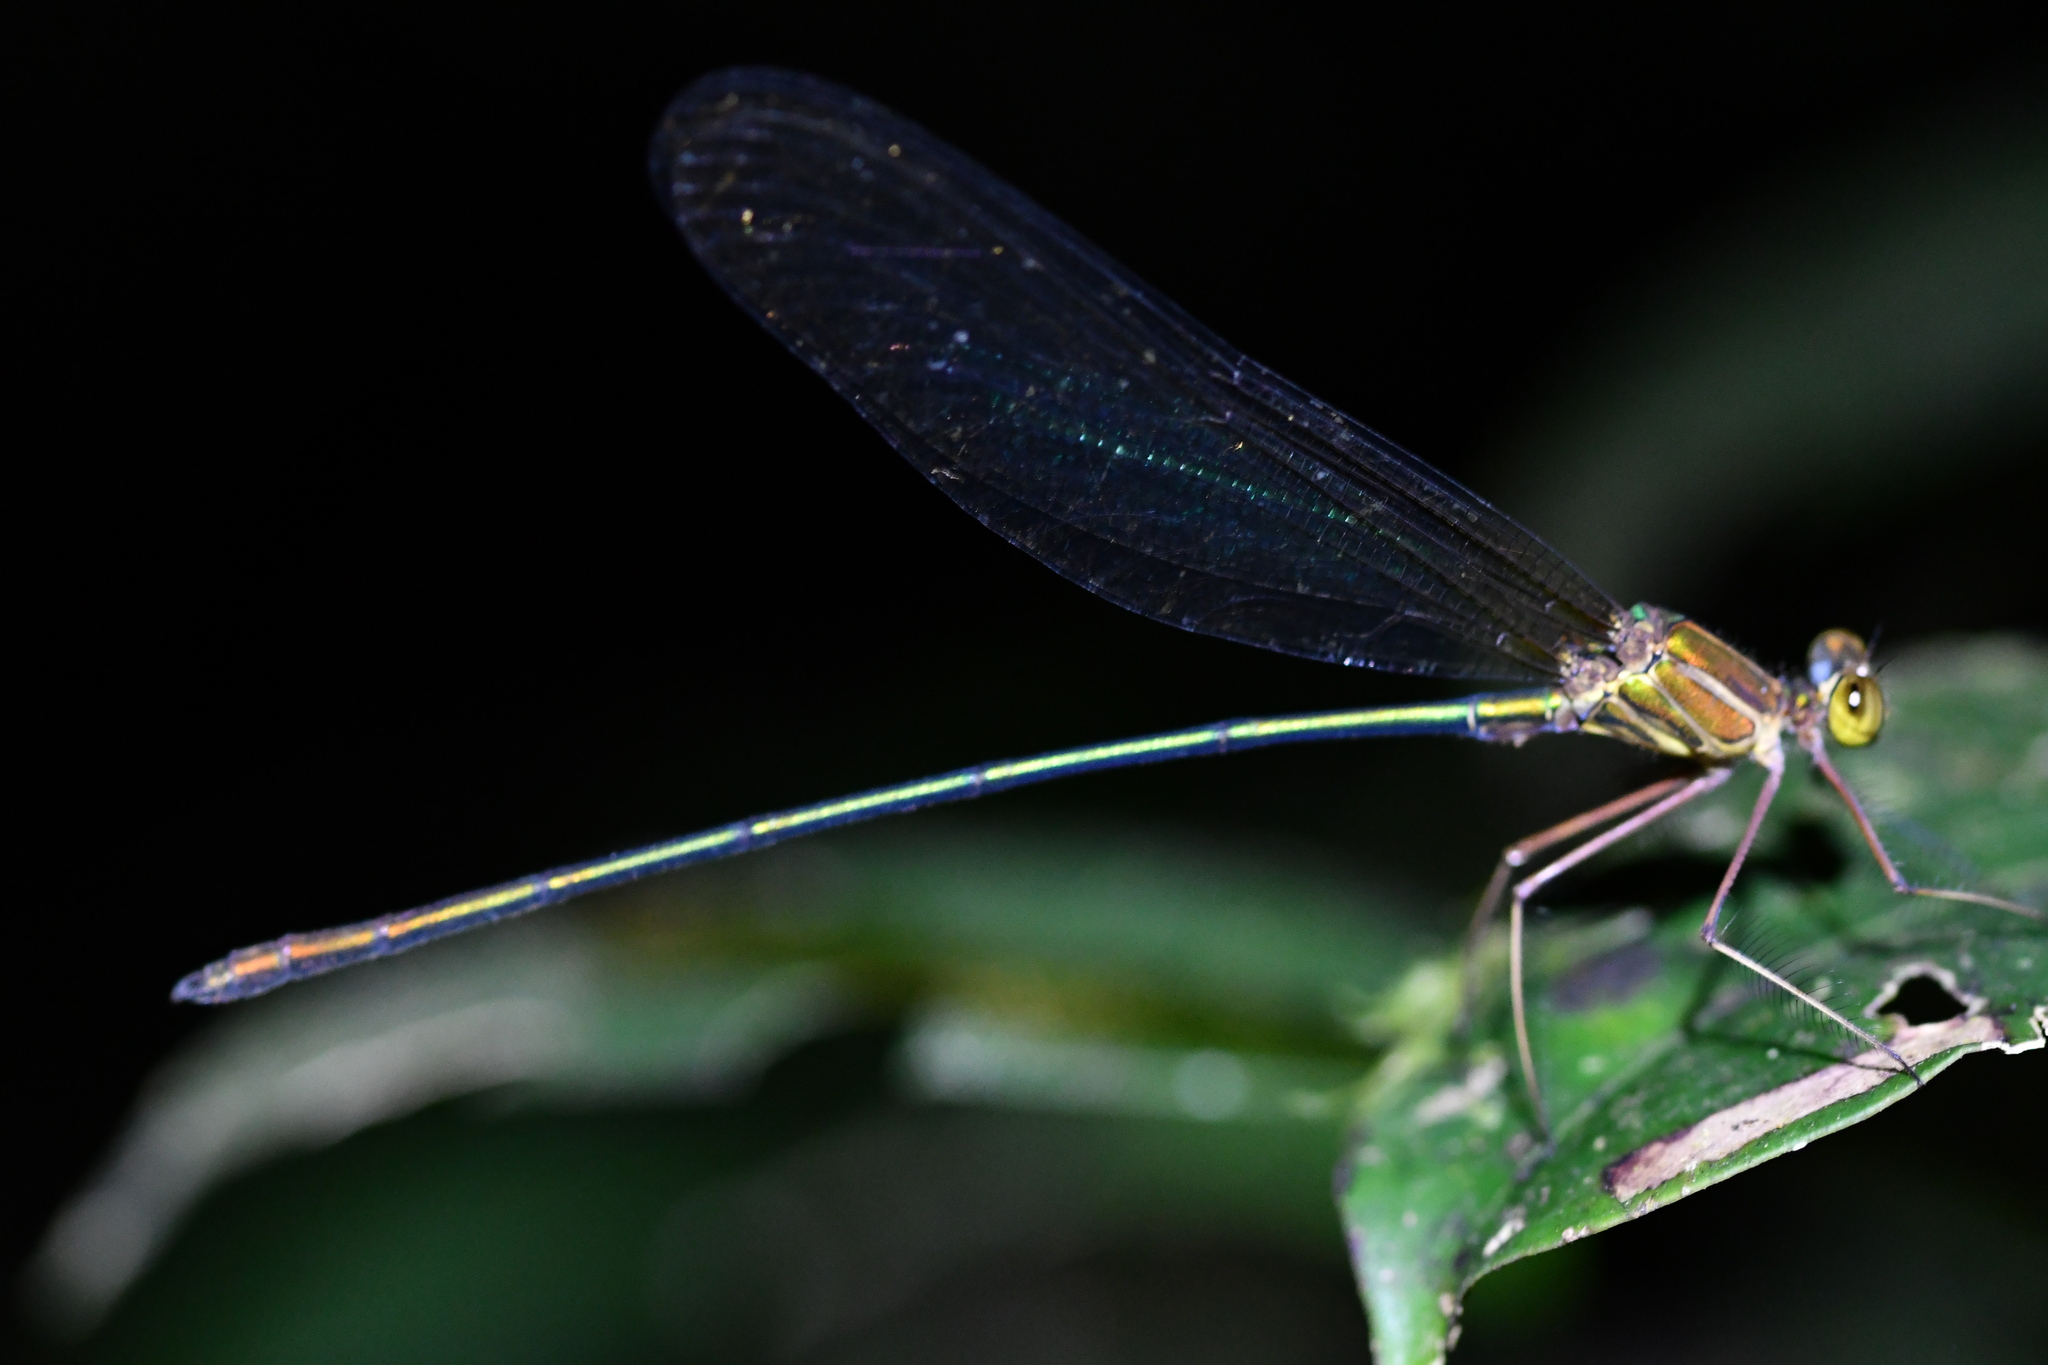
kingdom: Animalia
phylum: Arthropoda
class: Insecta
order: Odonata
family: Calopterygidae
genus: Phaon
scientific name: Phaon rasoherinae
